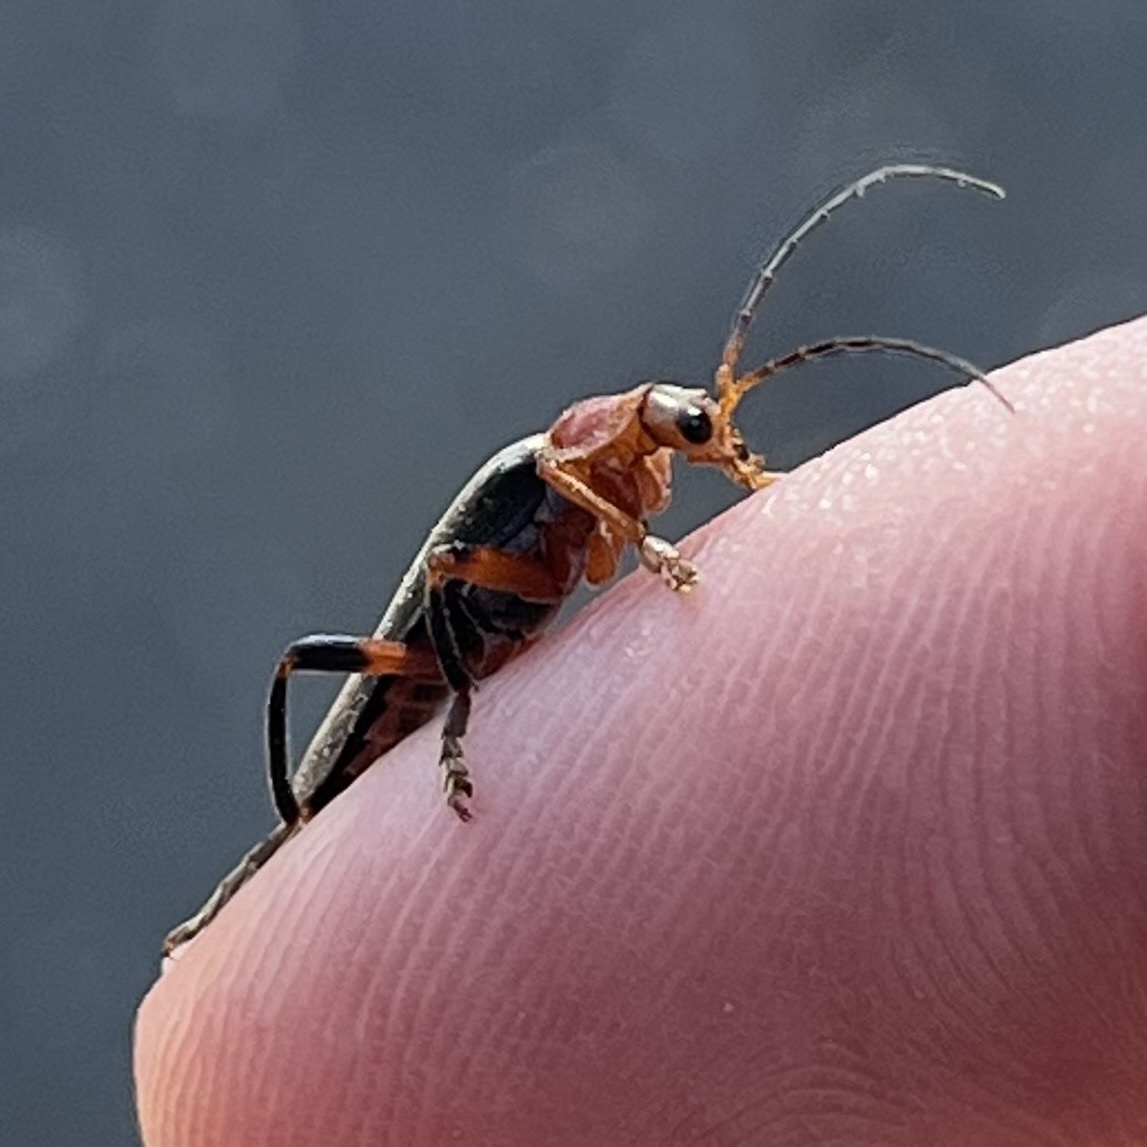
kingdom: Animalia
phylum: Arthropoda
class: Insecta
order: Coleoptera
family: Cantharidae
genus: Cantharis
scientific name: Cantharis livida
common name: Livid soldier beetle
